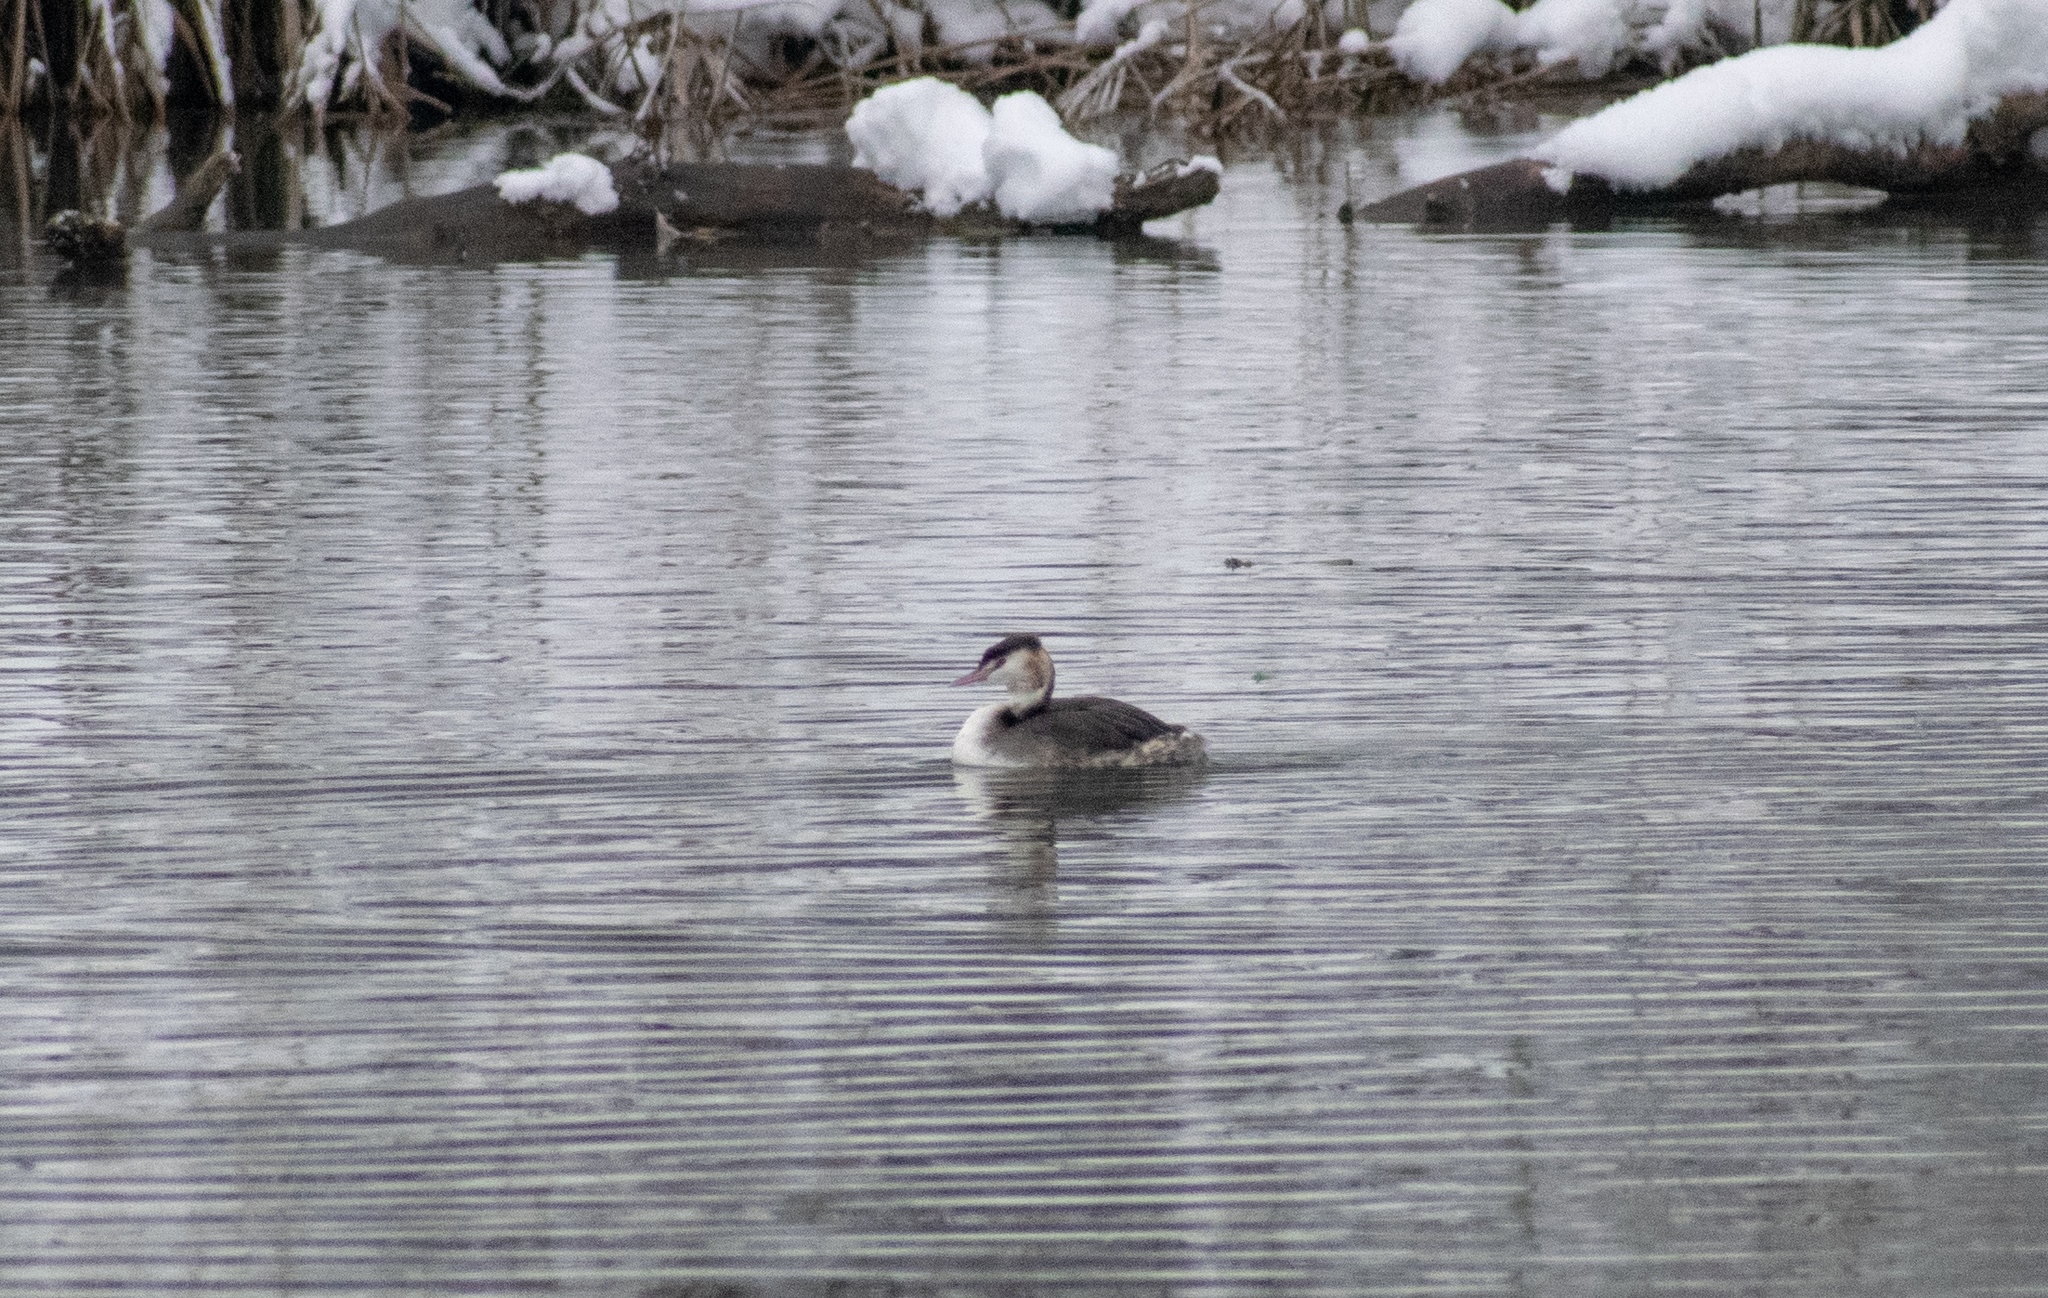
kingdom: Animalia
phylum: Chordata
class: Aves
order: Podicipediformes
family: Podicipedidae
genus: Podiceps
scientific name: Podiceps cristatus
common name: Great crested grebe
